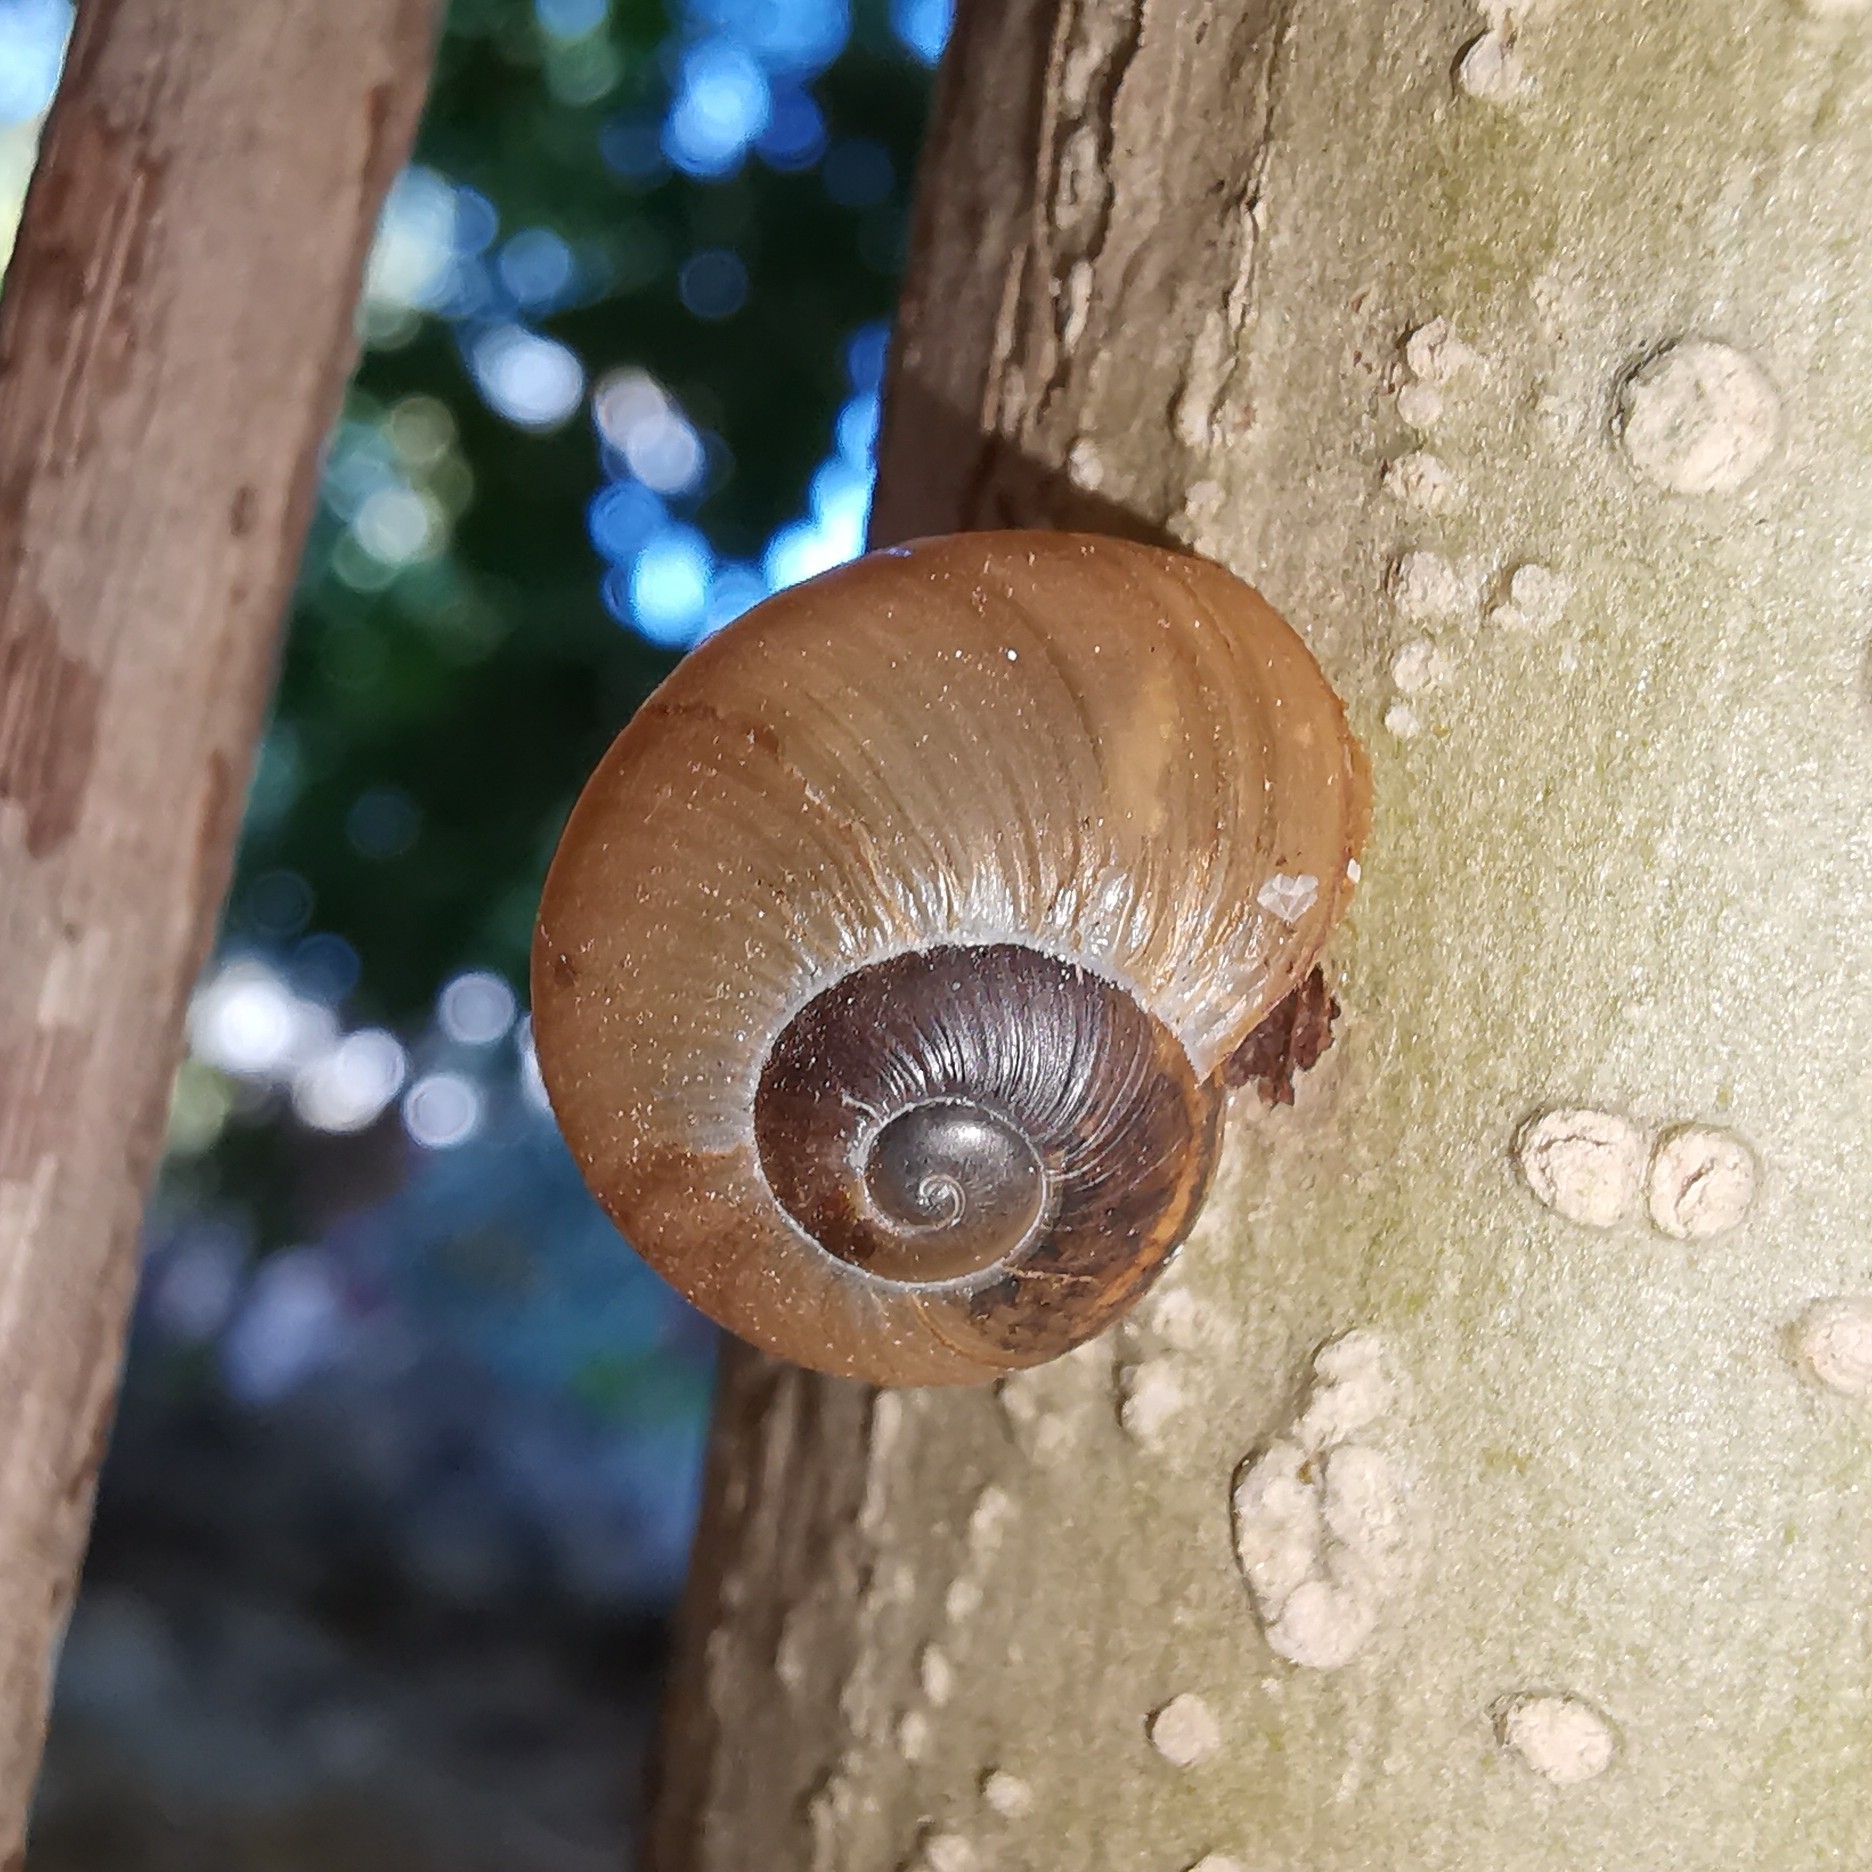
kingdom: Animalia
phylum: Mollusca
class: Gastropoda
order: Stylommatophora
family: Zachrysiidae
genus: Zachrysia
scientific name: Zachrysia provisoria
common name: Garden zachrysia
